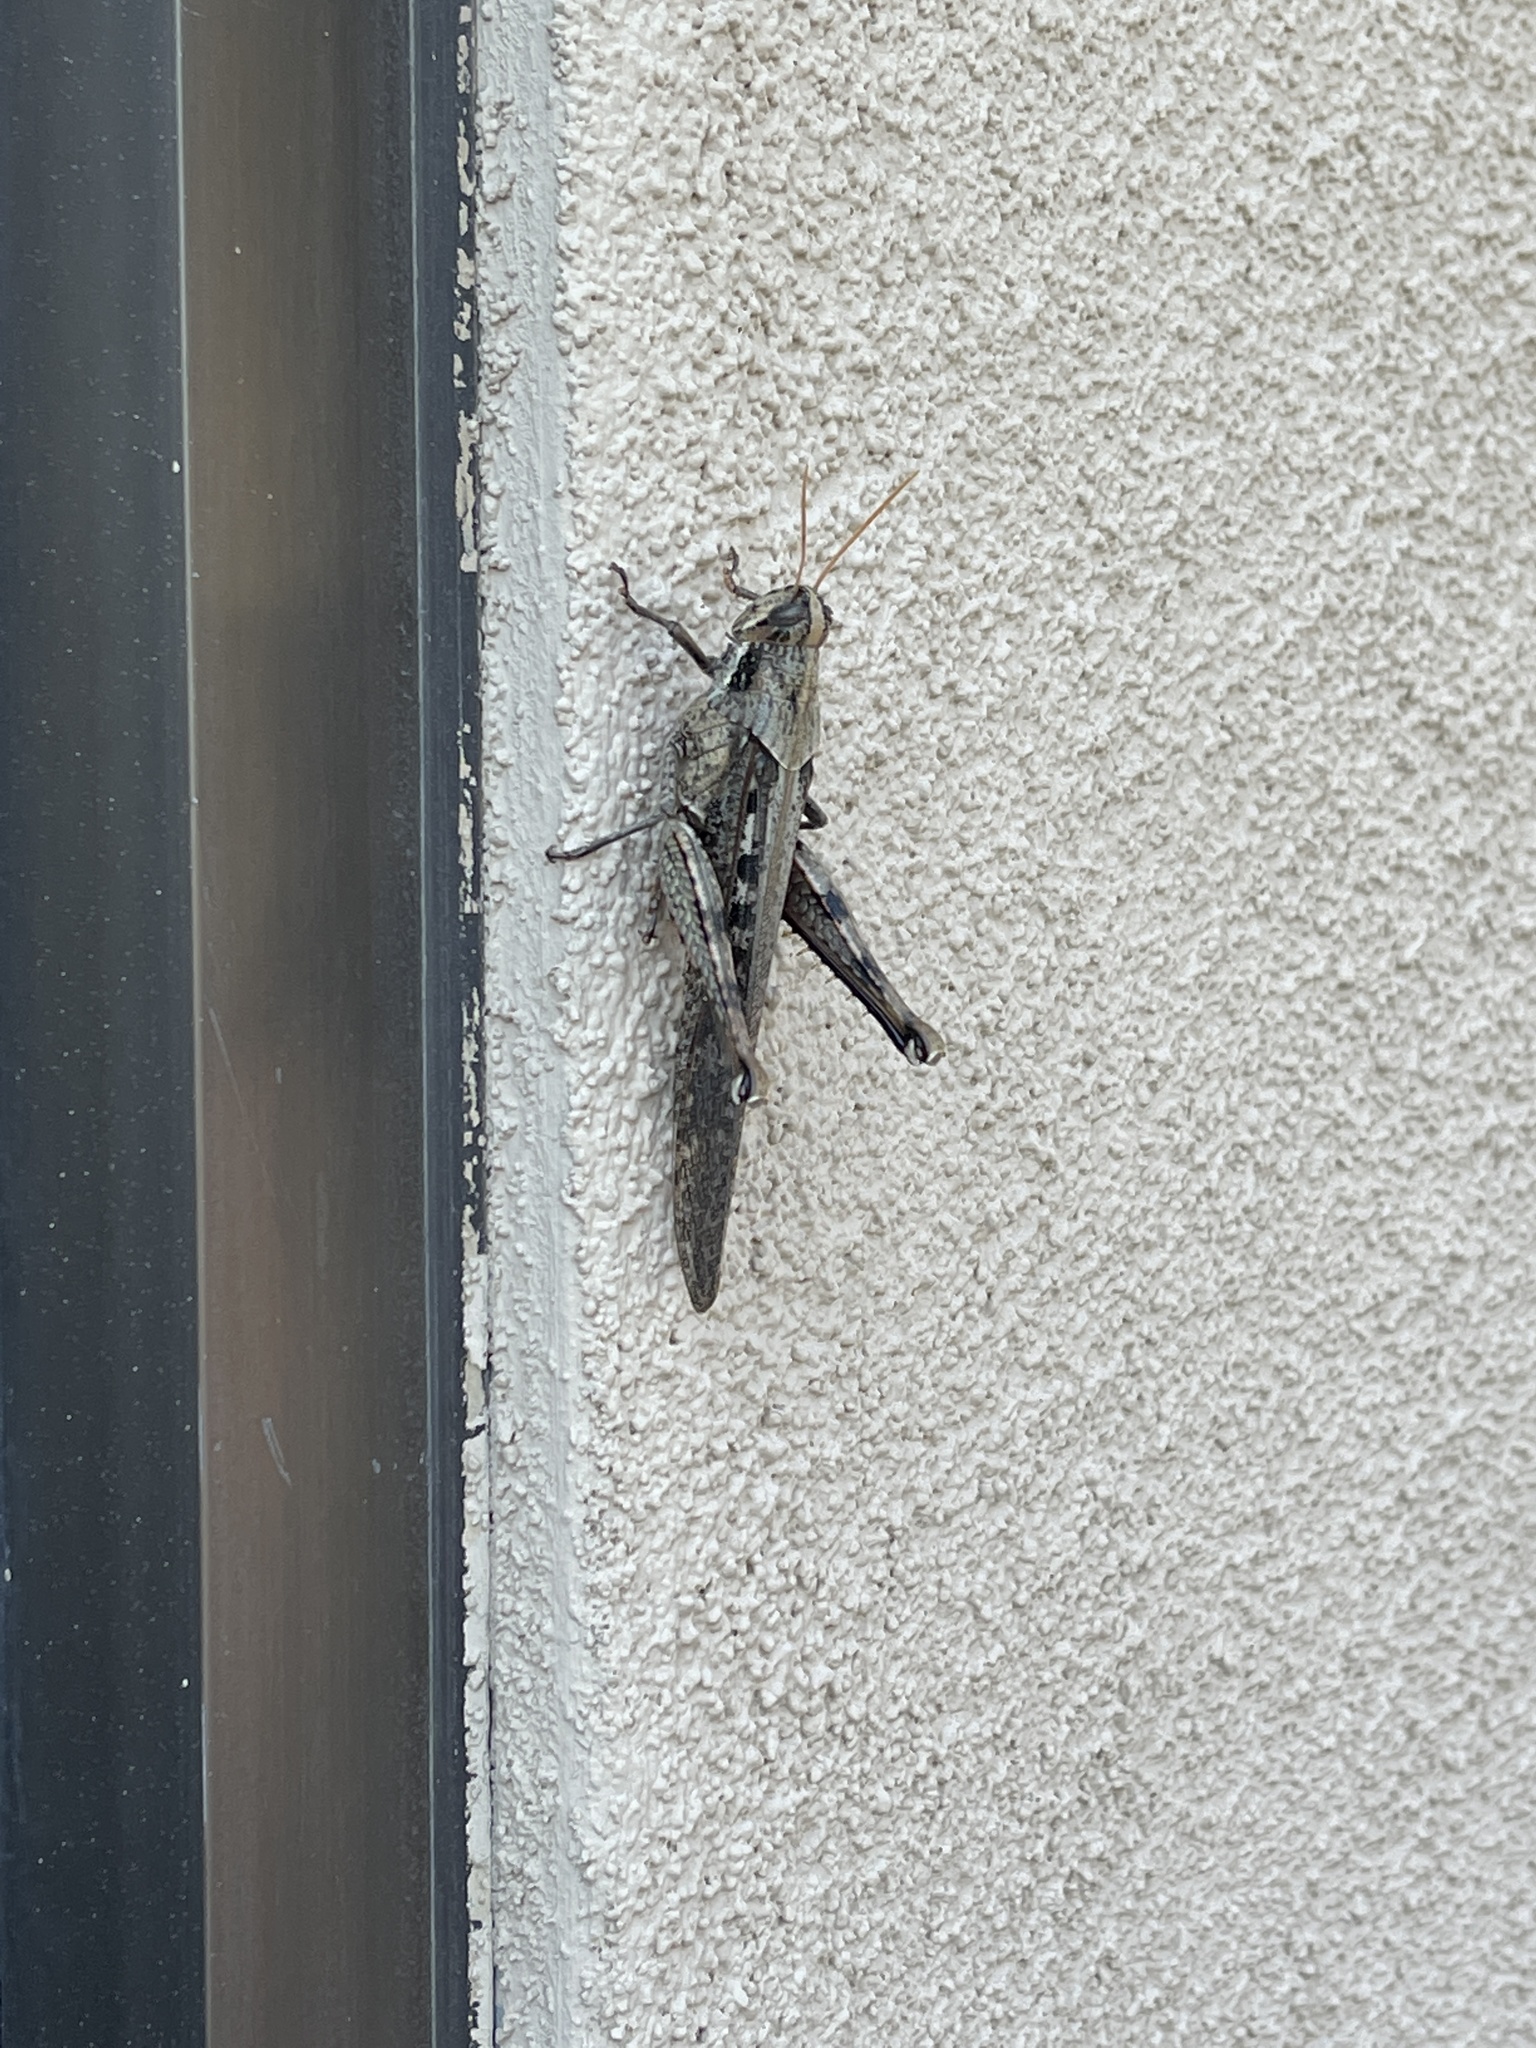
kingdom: Animalia
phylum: Arthropoda
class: Insecta
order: Orthoptera
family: Acrididae
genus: Schistocerca
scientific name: Schistocerca nitens
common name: Vagrant grasshopper
